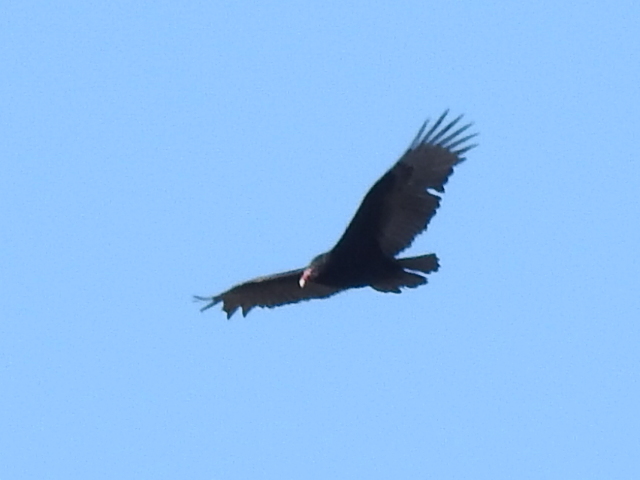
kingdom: Animalia
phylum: Chordata
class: Aves
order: Accipitriformes
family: Cathartidae
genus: Cathartes
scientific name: Cathartes aura
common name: Turkey vulture
